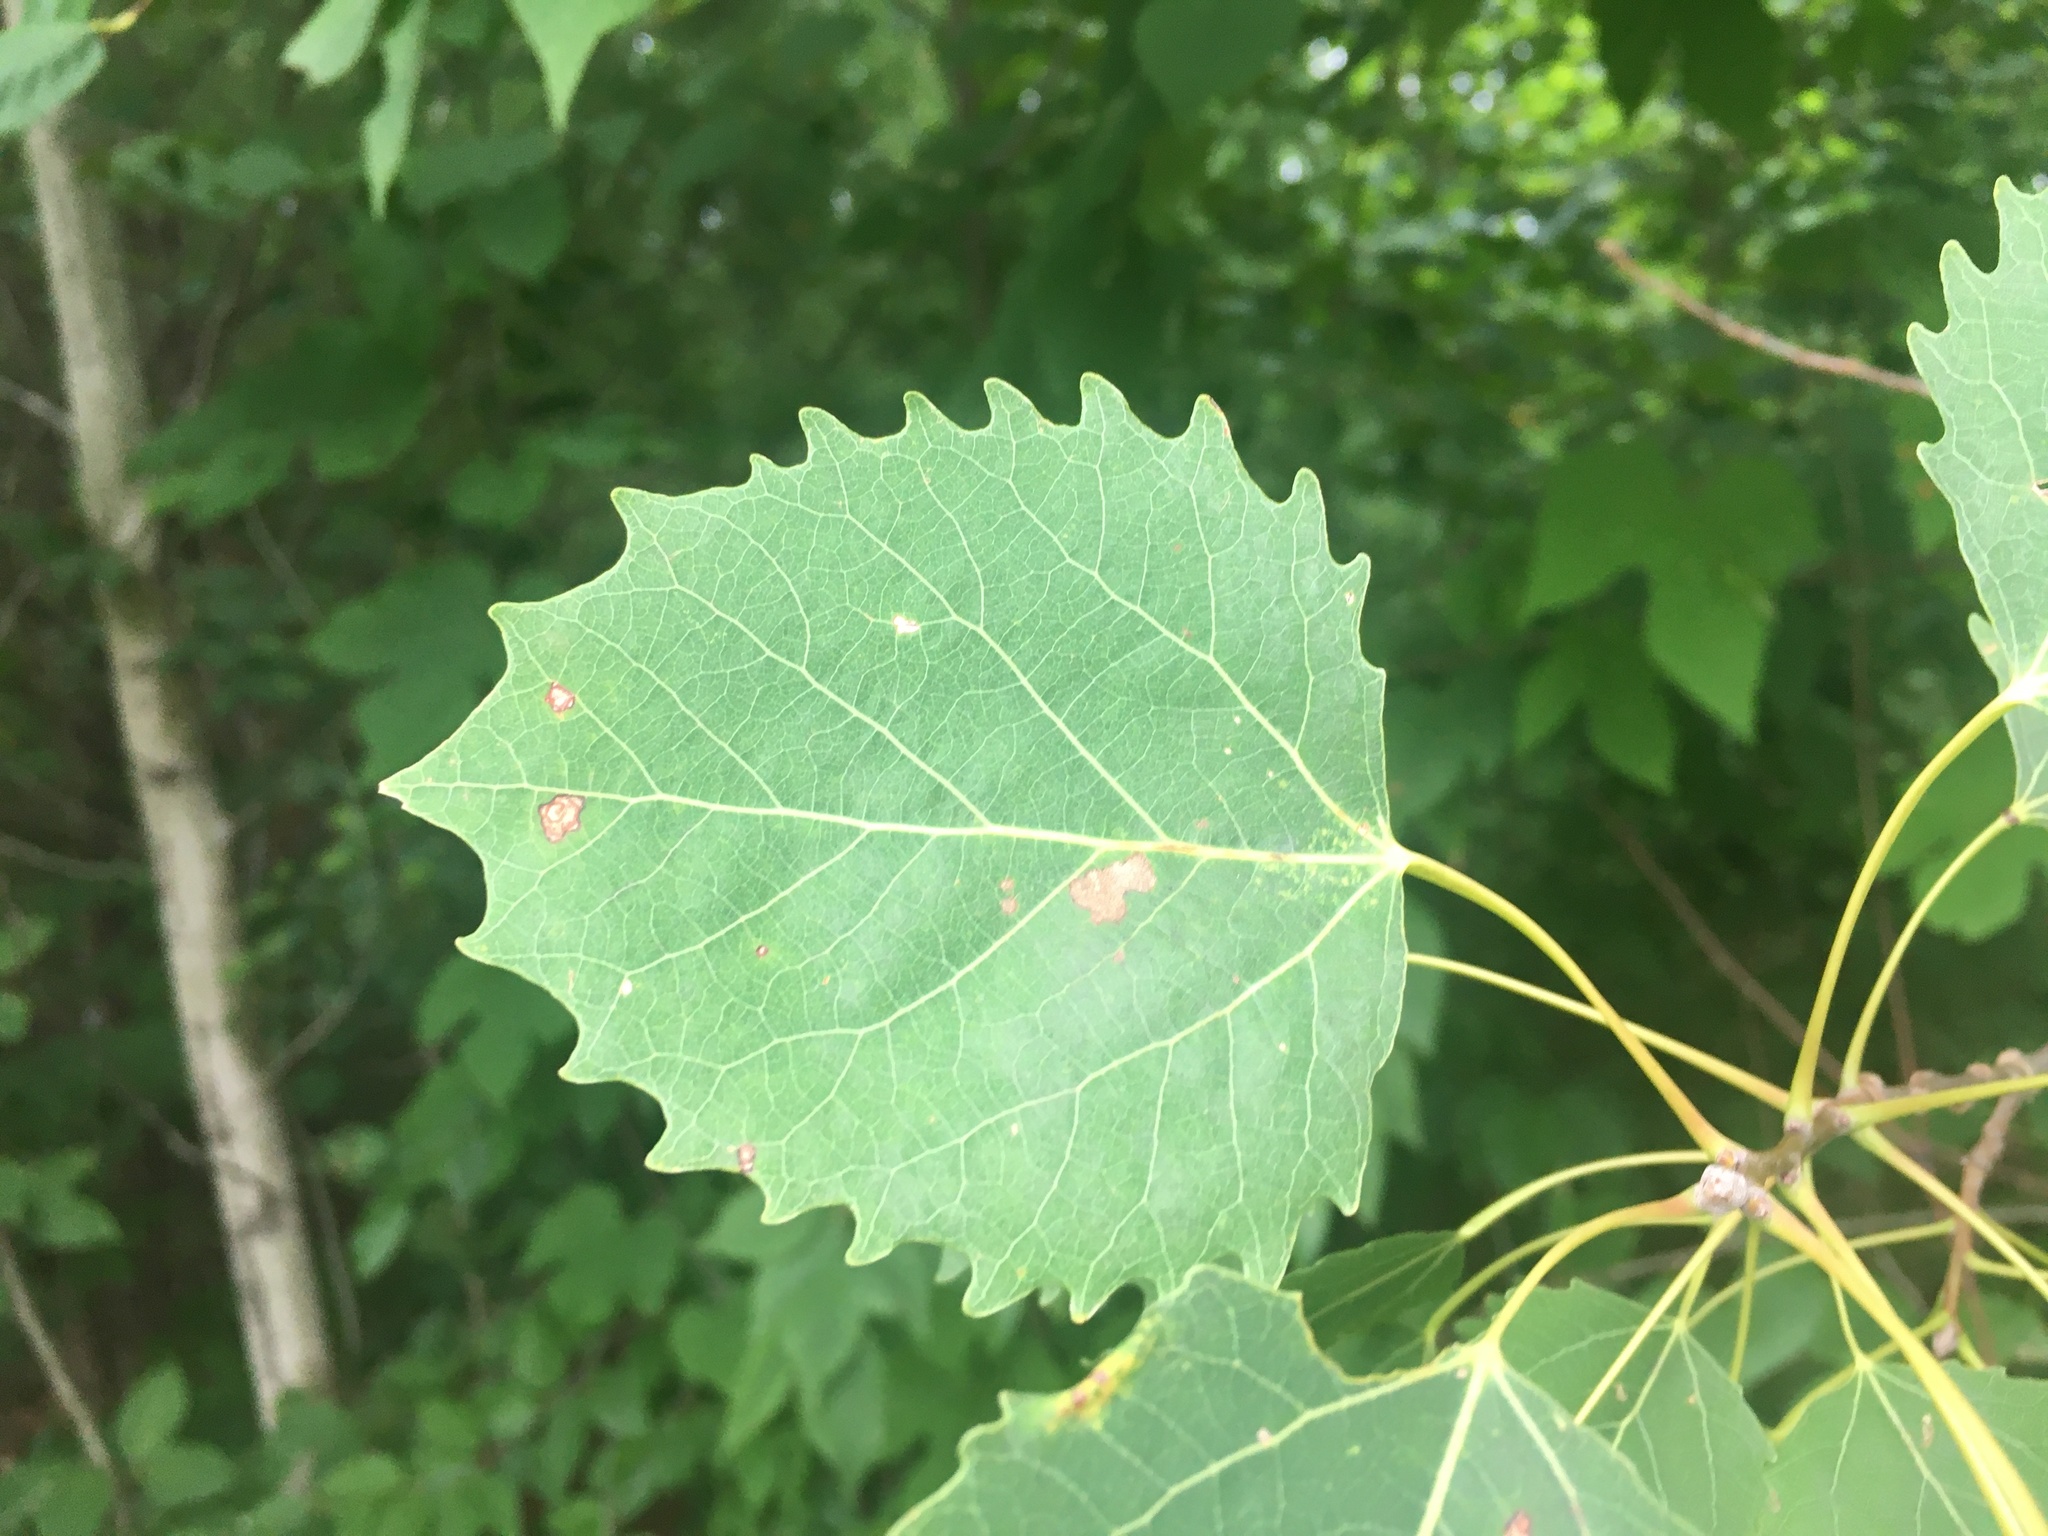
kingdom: Plantae
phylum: Tracheophyta
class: Magnoliopsida
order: Malpighiales
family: Salicaceae
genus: Populus
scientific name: Populus grandidentata
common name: Bigtooth aspen
